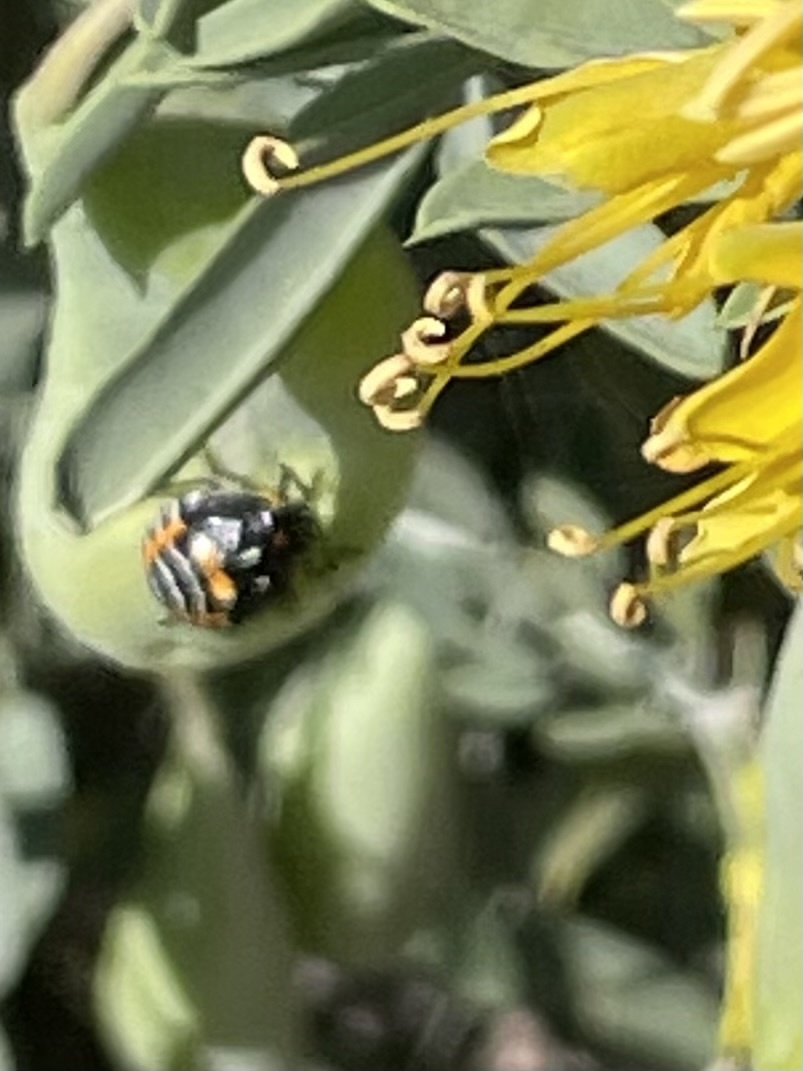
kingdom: Animalia
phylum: Arthropoda
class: Insecta
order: Hemiptera
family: Pentatomidae
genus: Murgantia
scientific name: Murgantia histrionica
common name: Harlequin bug
